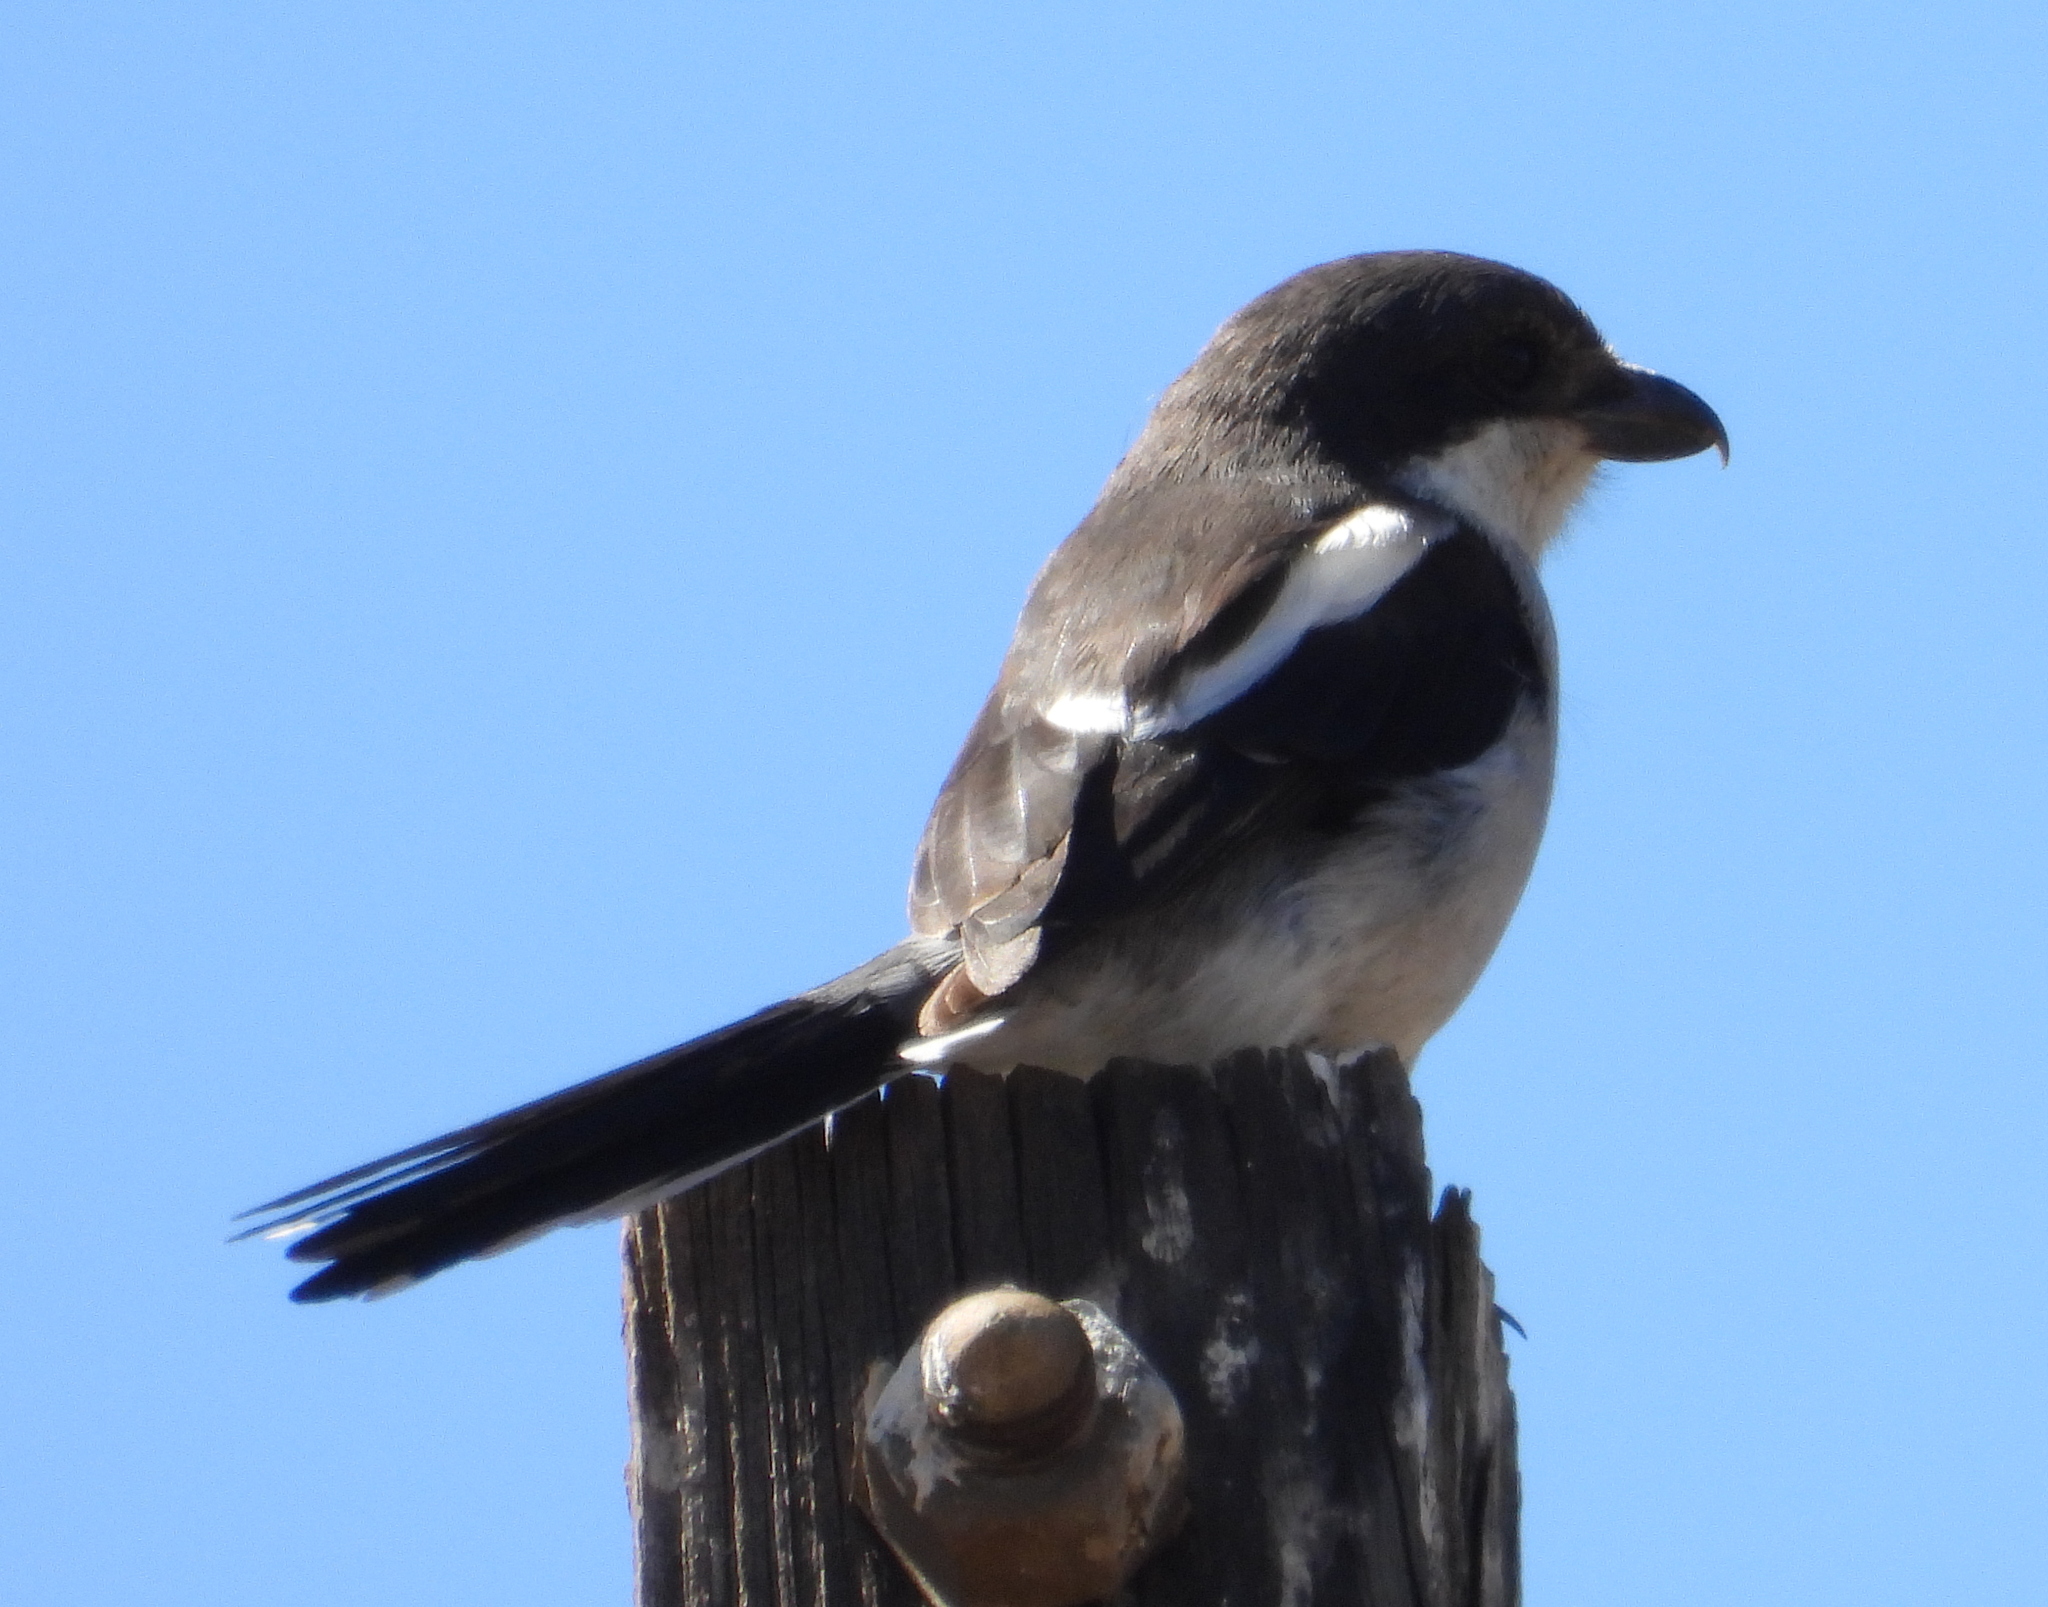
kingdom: Animalia
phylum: Chordata
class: Aves
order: Passeriformes
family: Laniidae
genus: Lanius
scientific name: Lanius collaris
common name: Southern fiscal
